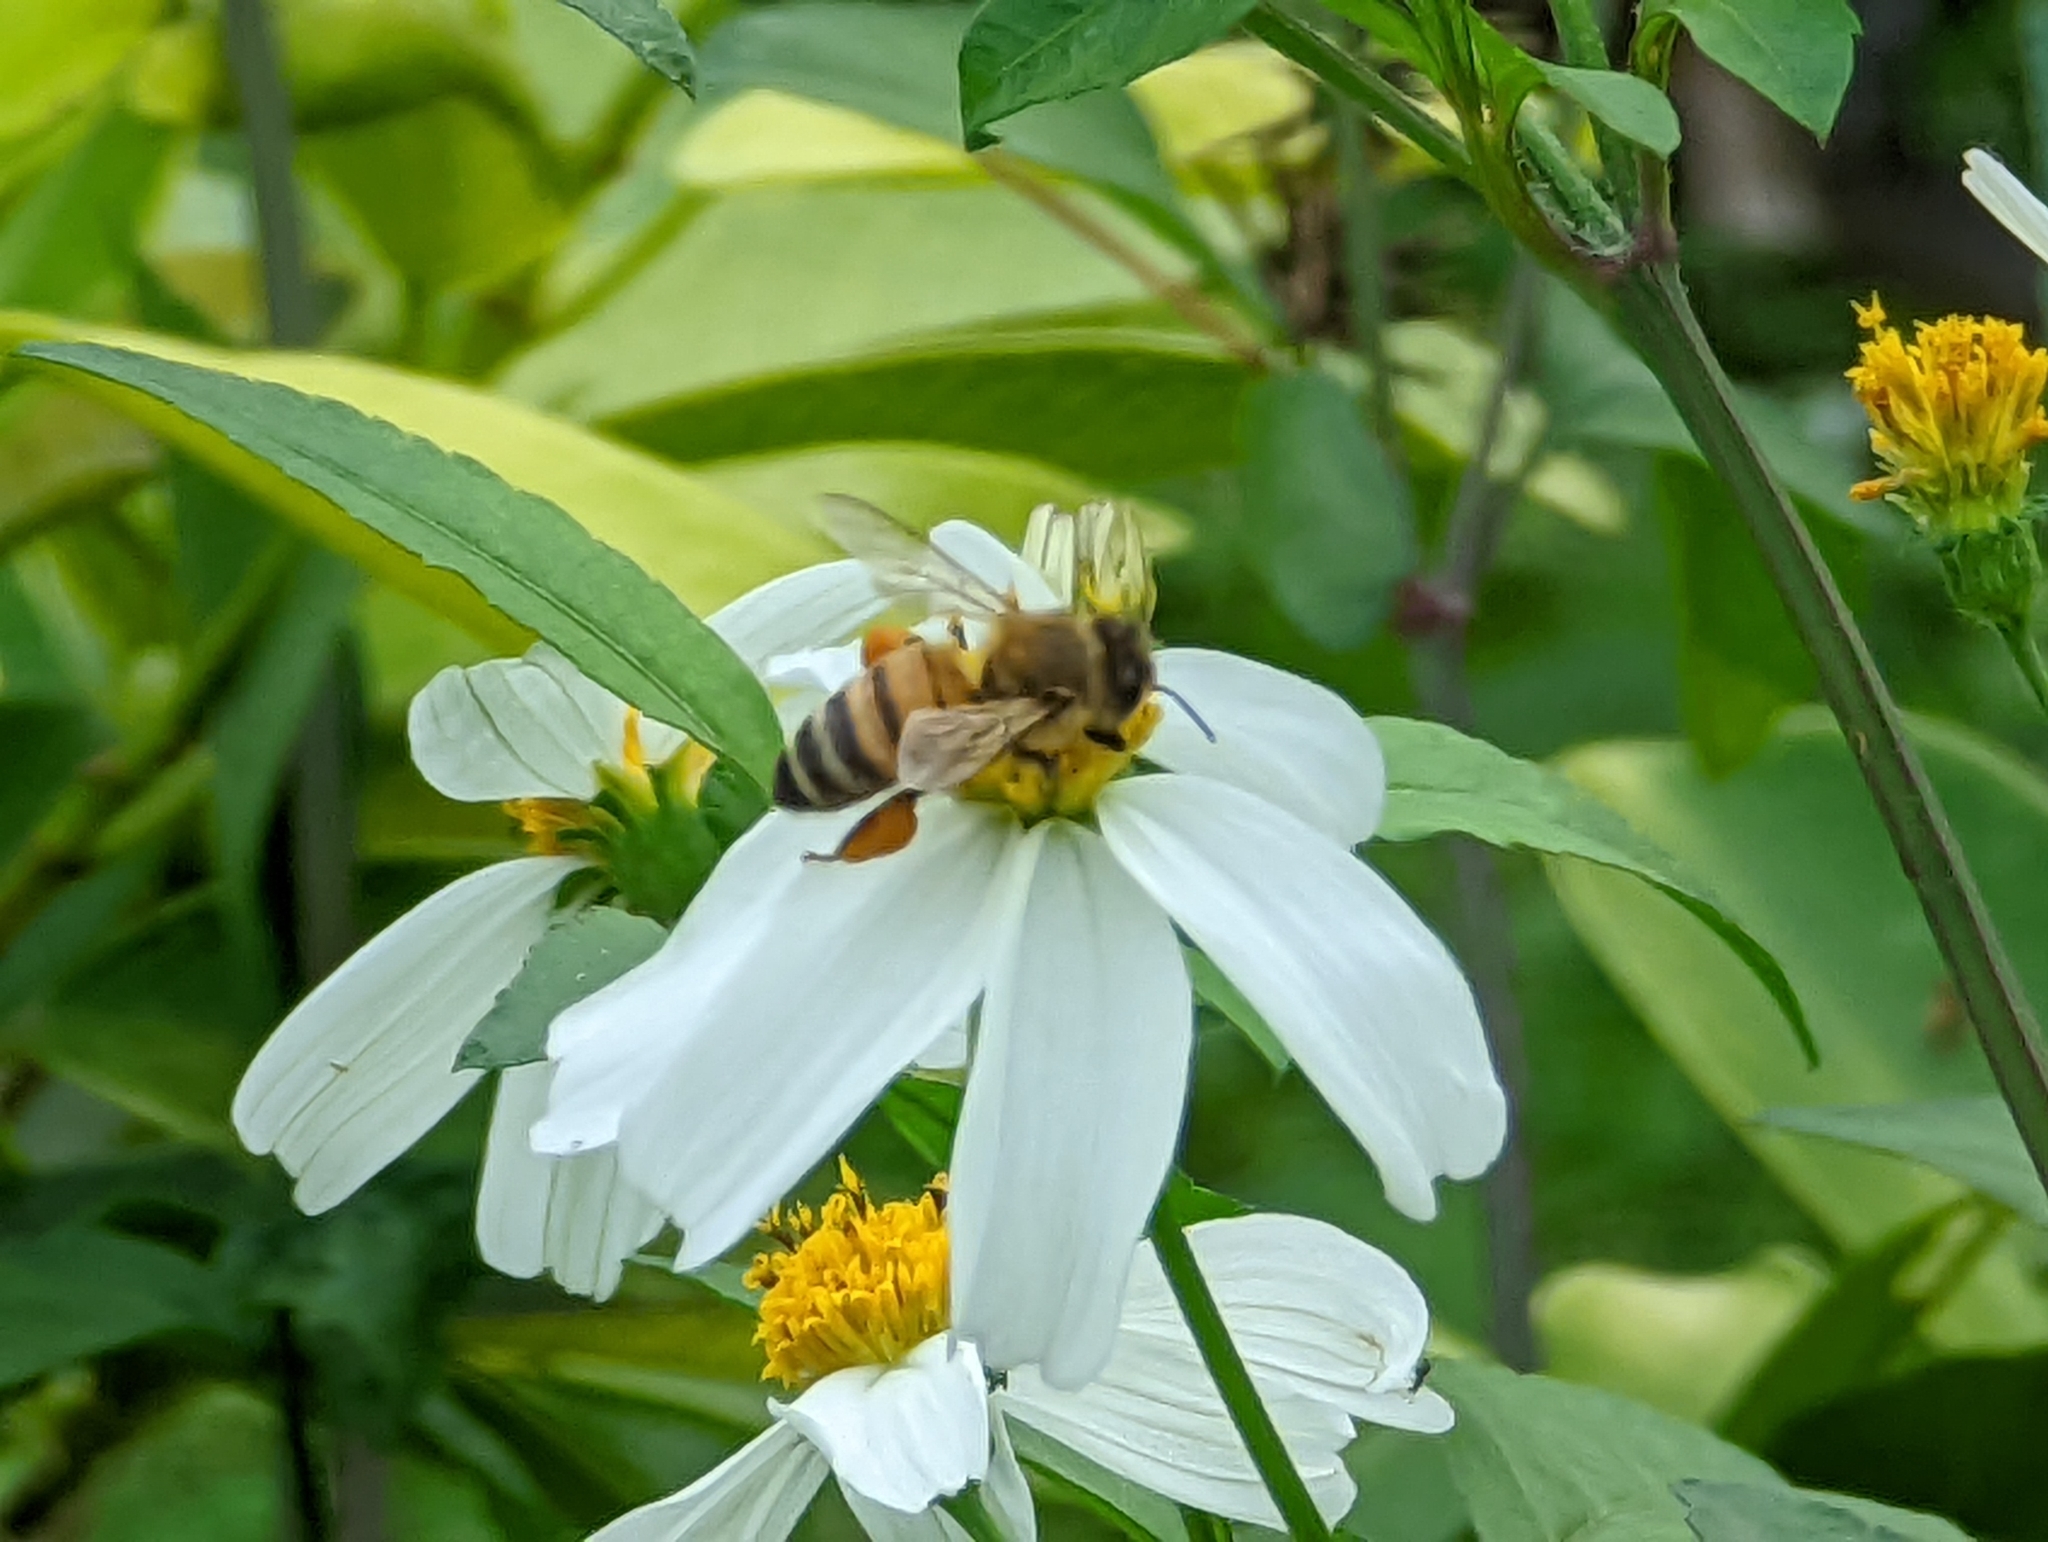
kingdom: Animalia
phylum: Arthropoda
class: Insecta
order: Hymenoptera
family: Apidae
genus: Apis
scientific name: Apis mellifera
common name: Honey bee
